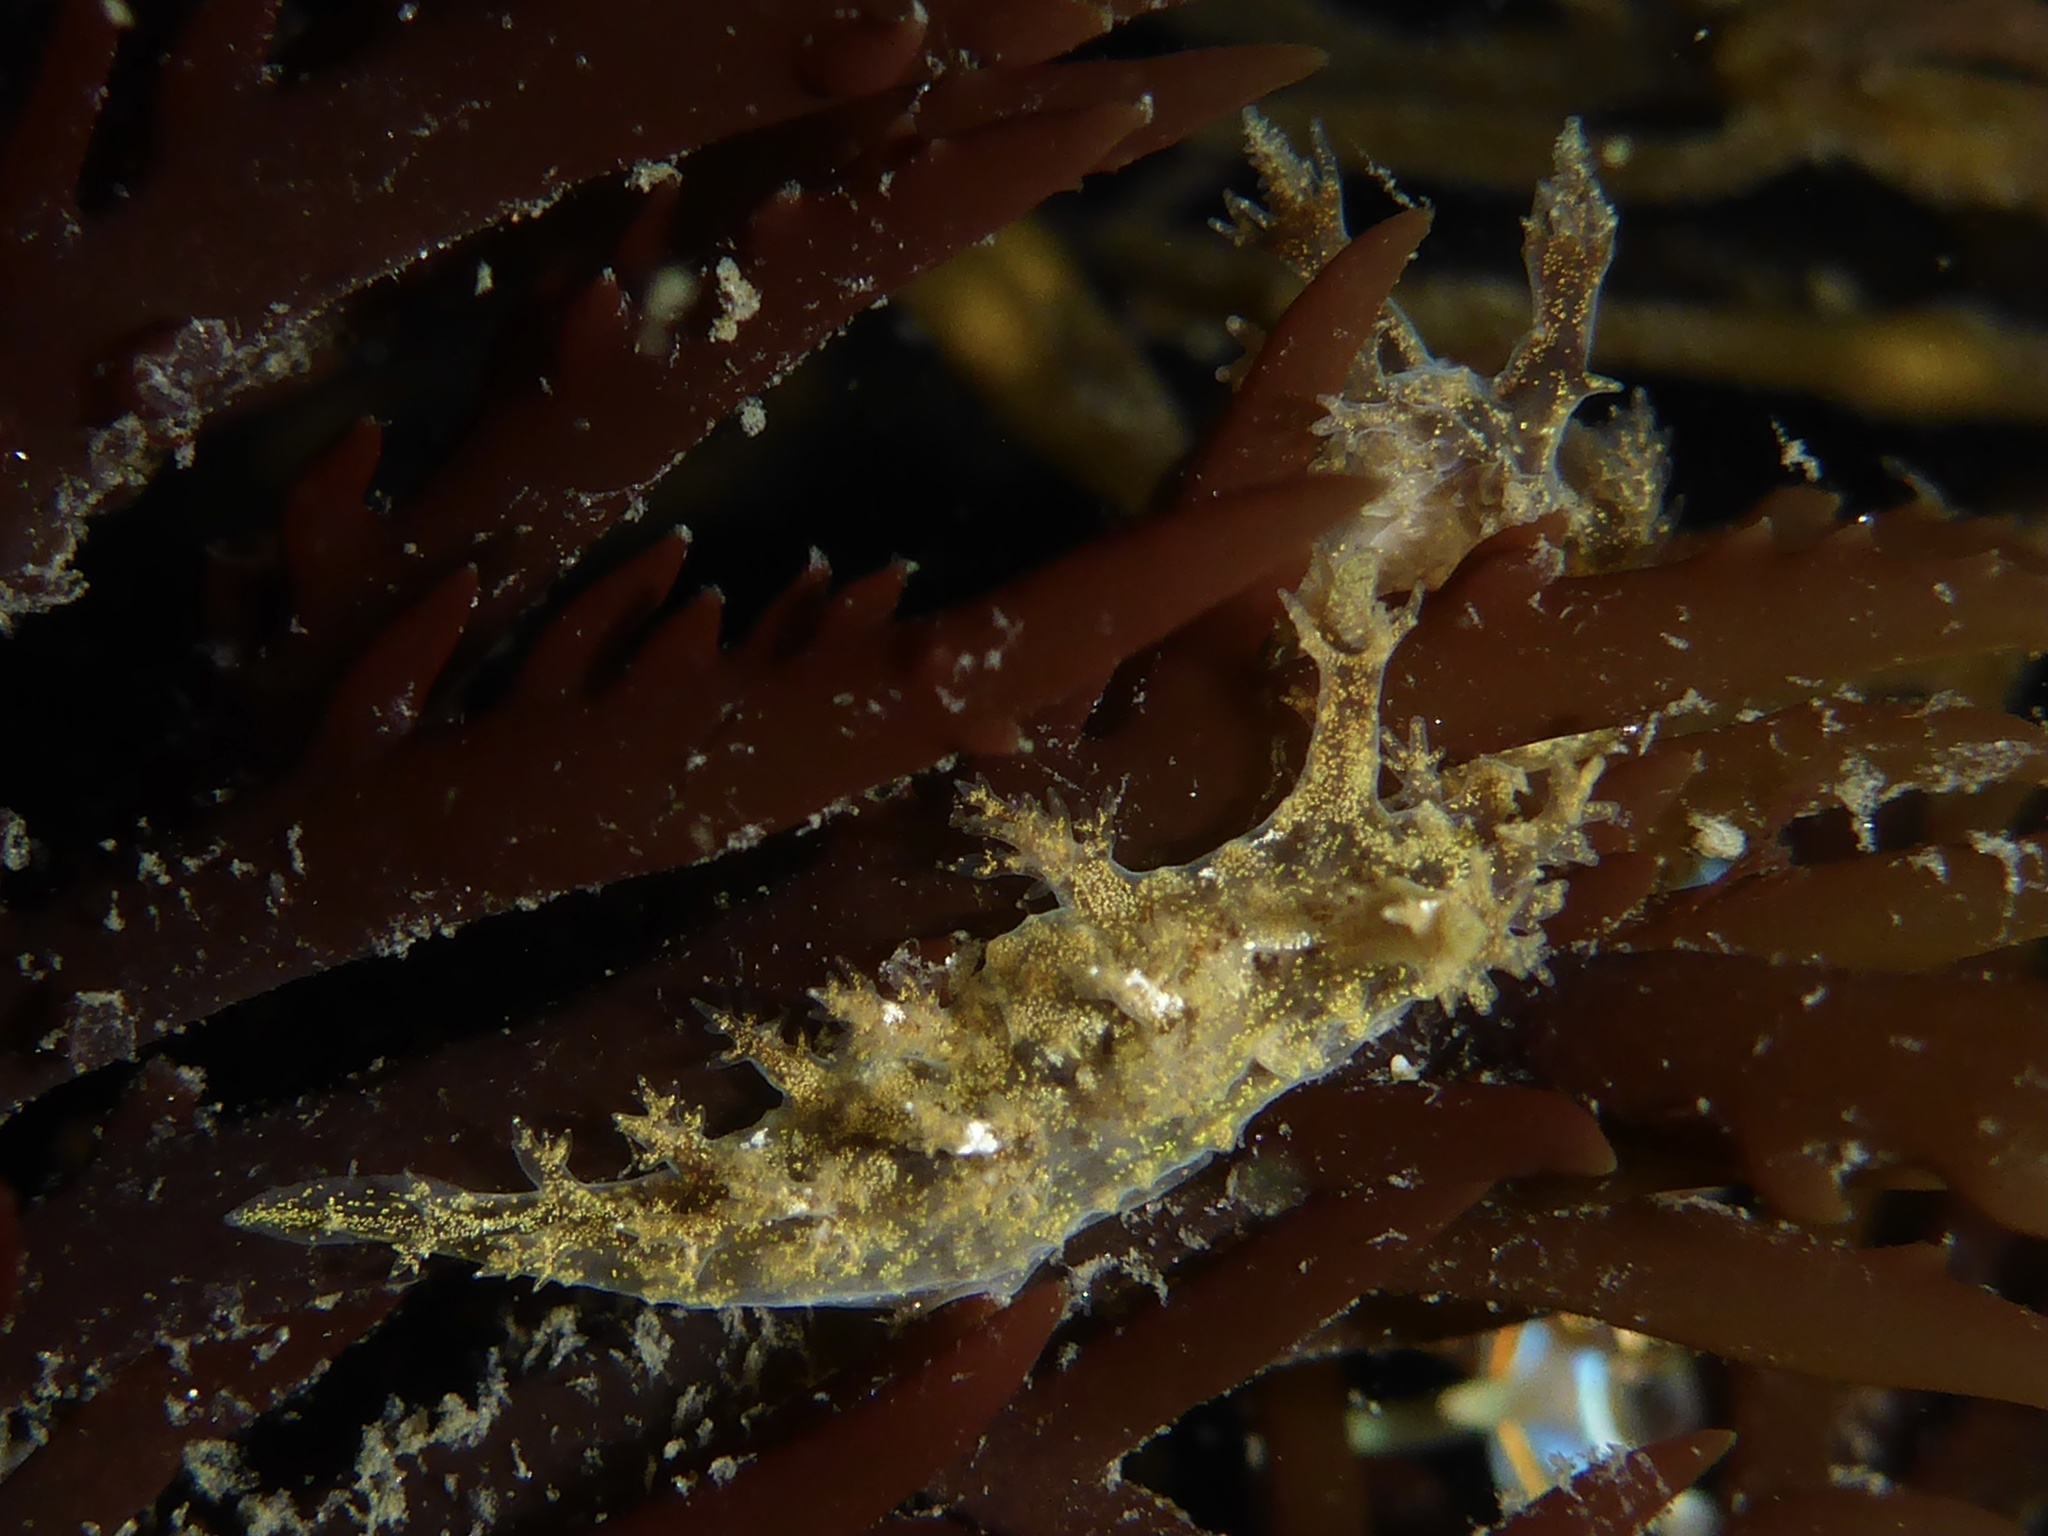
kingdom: Animalia
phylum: Mollusca
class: Gastropoda
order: Nudibranchia
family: Dendronotidae
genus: Dendronotus
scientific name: Dendronotus venustus
